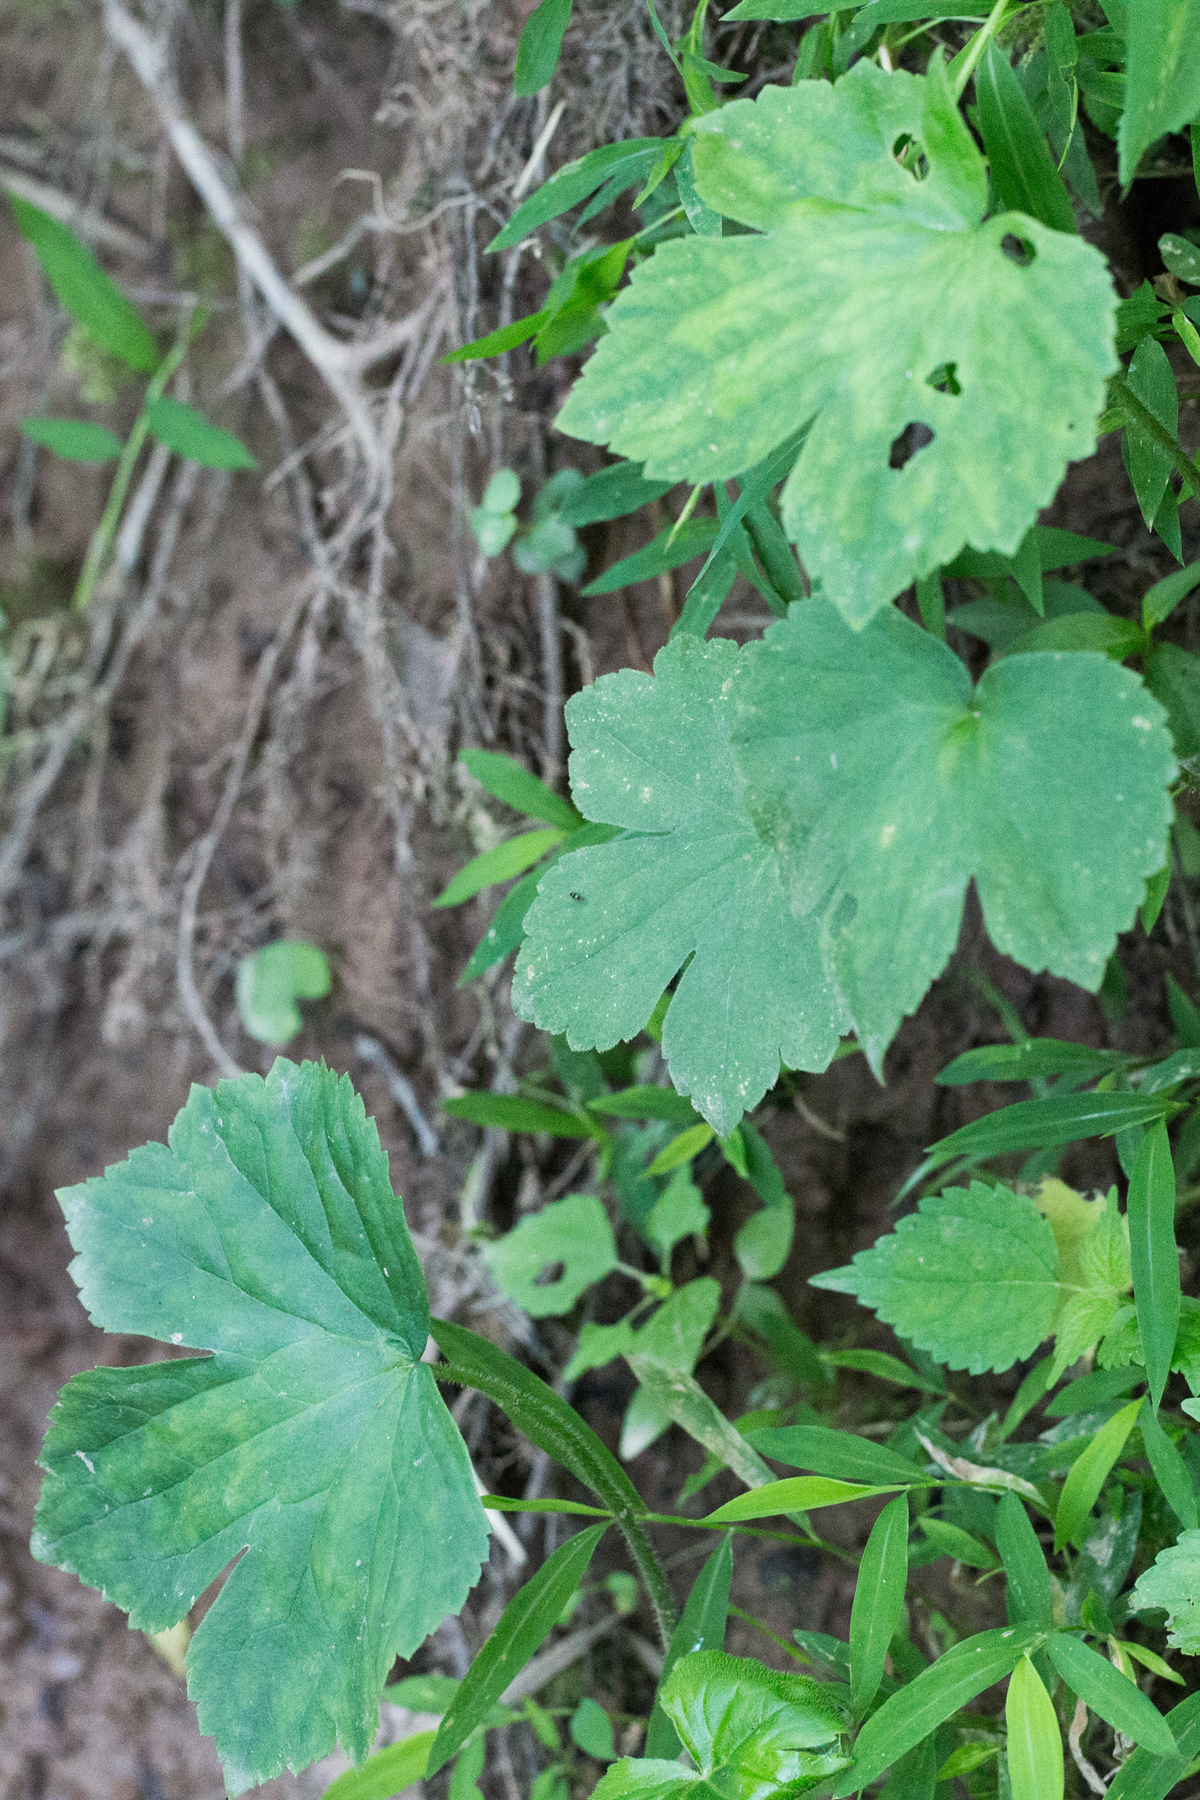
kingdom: Plantae
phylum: Tracheophyta
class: Magnoliopsida
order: Ranunculales
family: Ranunculaceae
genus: Ranunculus
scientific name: Ranunculus recurvatus
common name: Blisterwort
